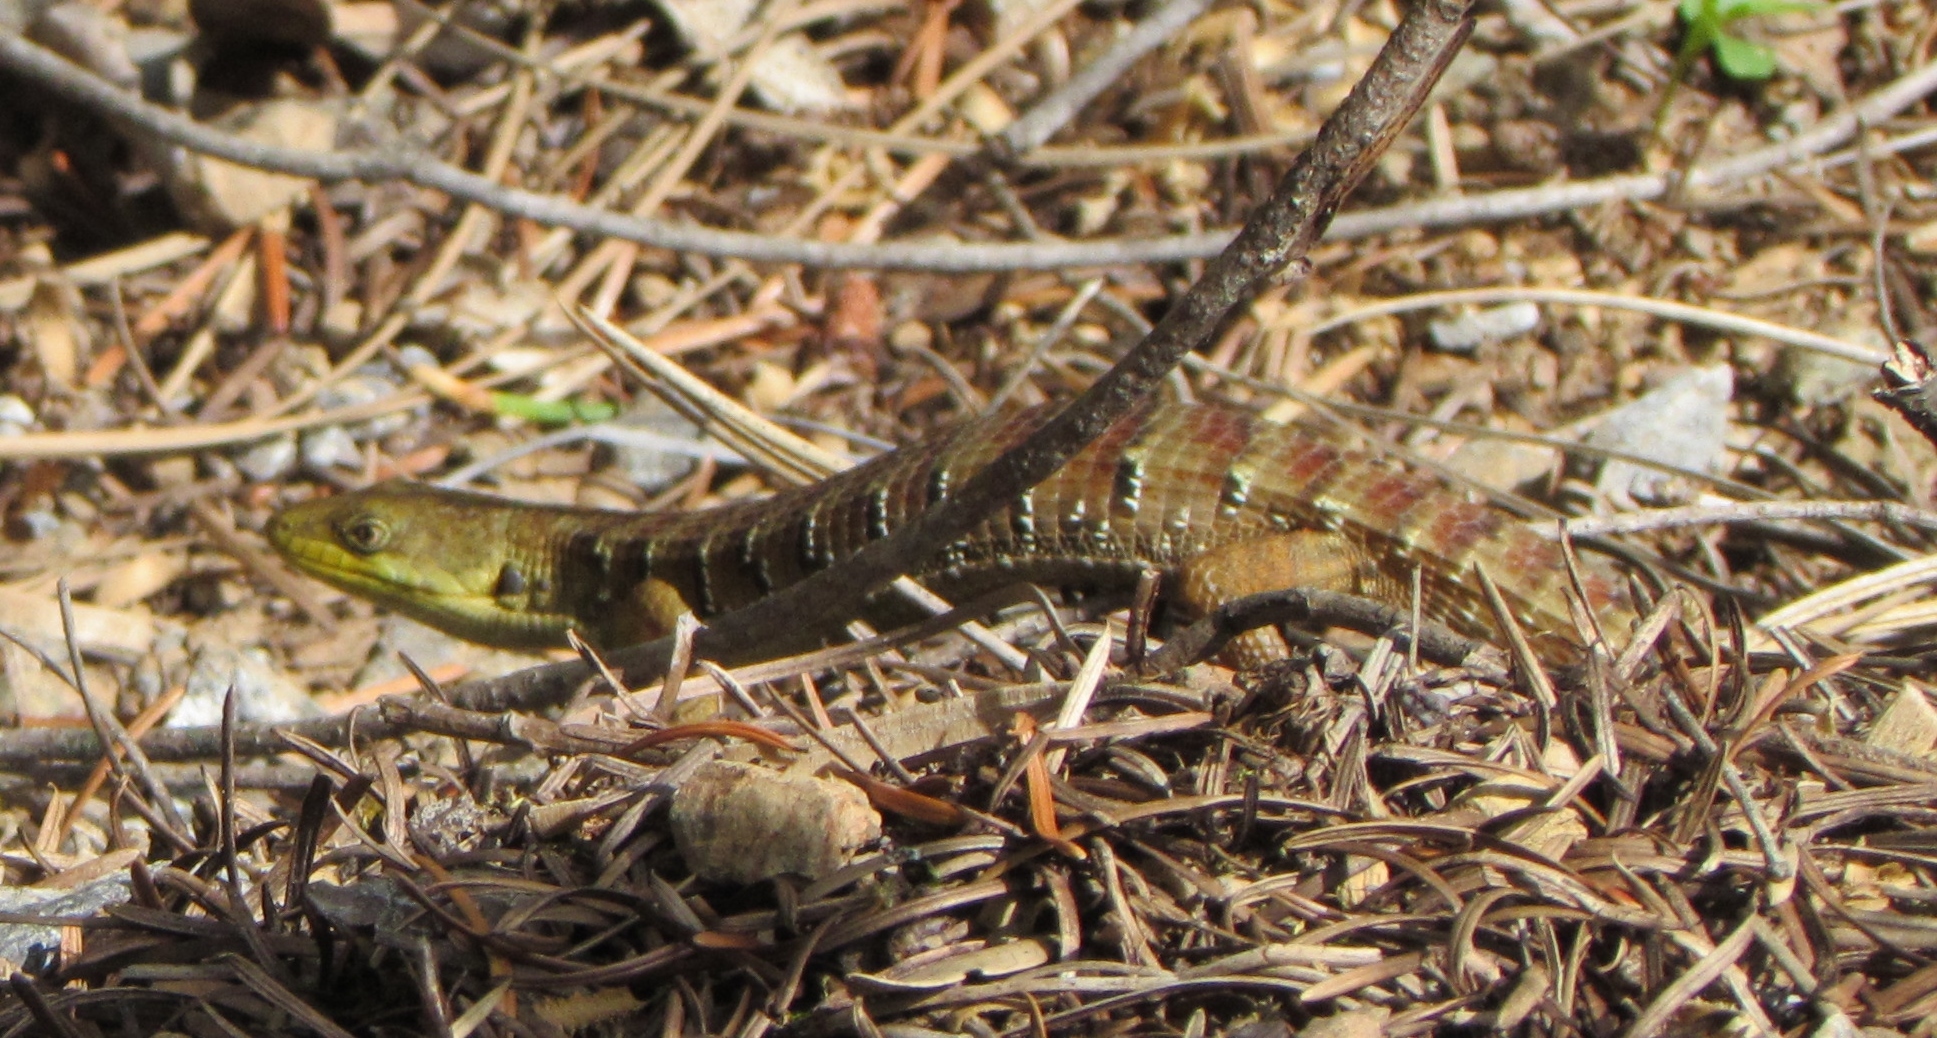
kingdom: Animalia
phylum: Chordata
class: Squamata
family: Anguidae
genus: Elgaria
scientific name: Elgaria multicarinata
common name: Southern alligator lizard
